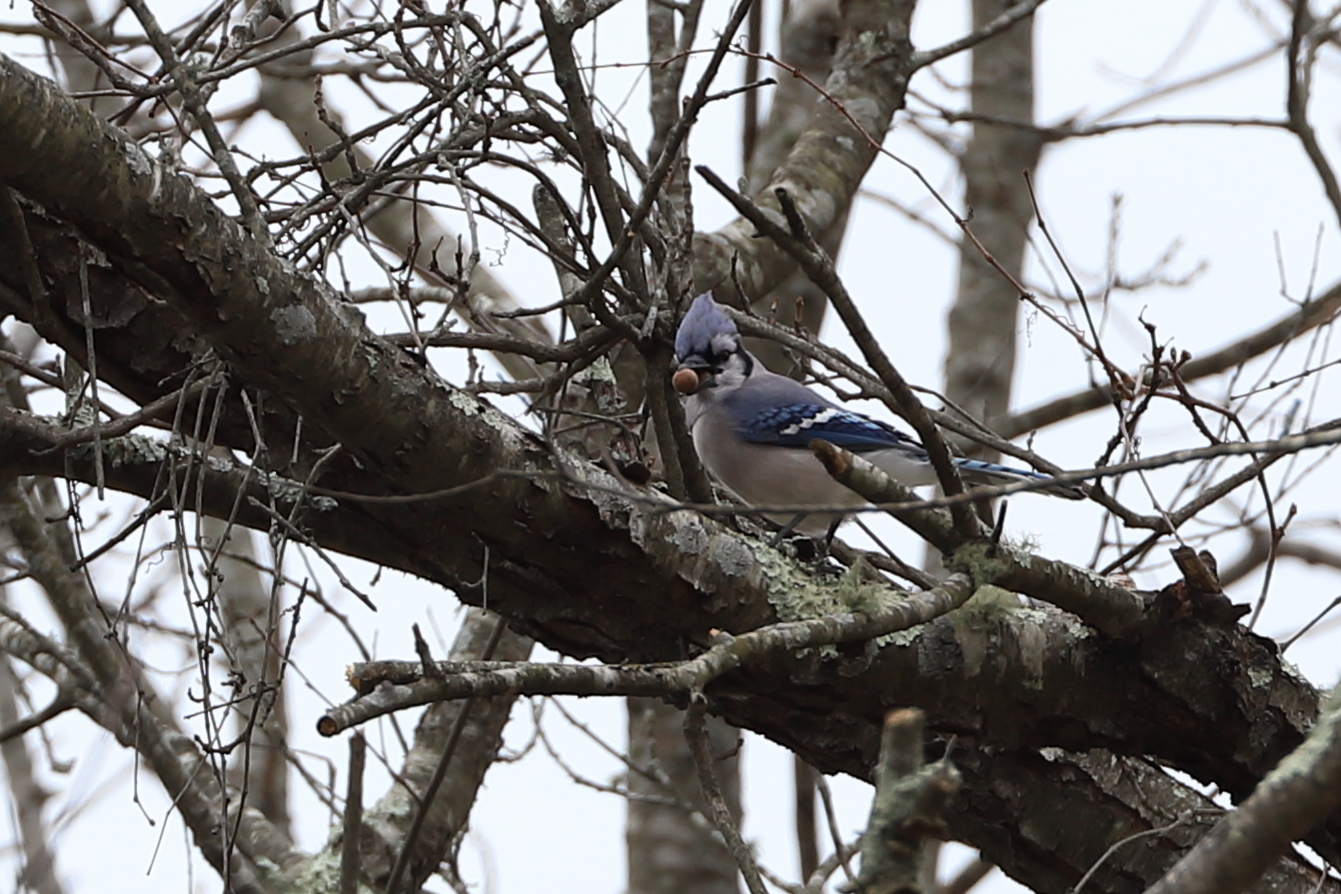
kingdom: Animalia
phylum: Chordata
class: Aves
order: Passeriformes
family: Corvidae
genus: Cyanocitta
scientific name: Cyanocitta cristata
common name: Blue jay
